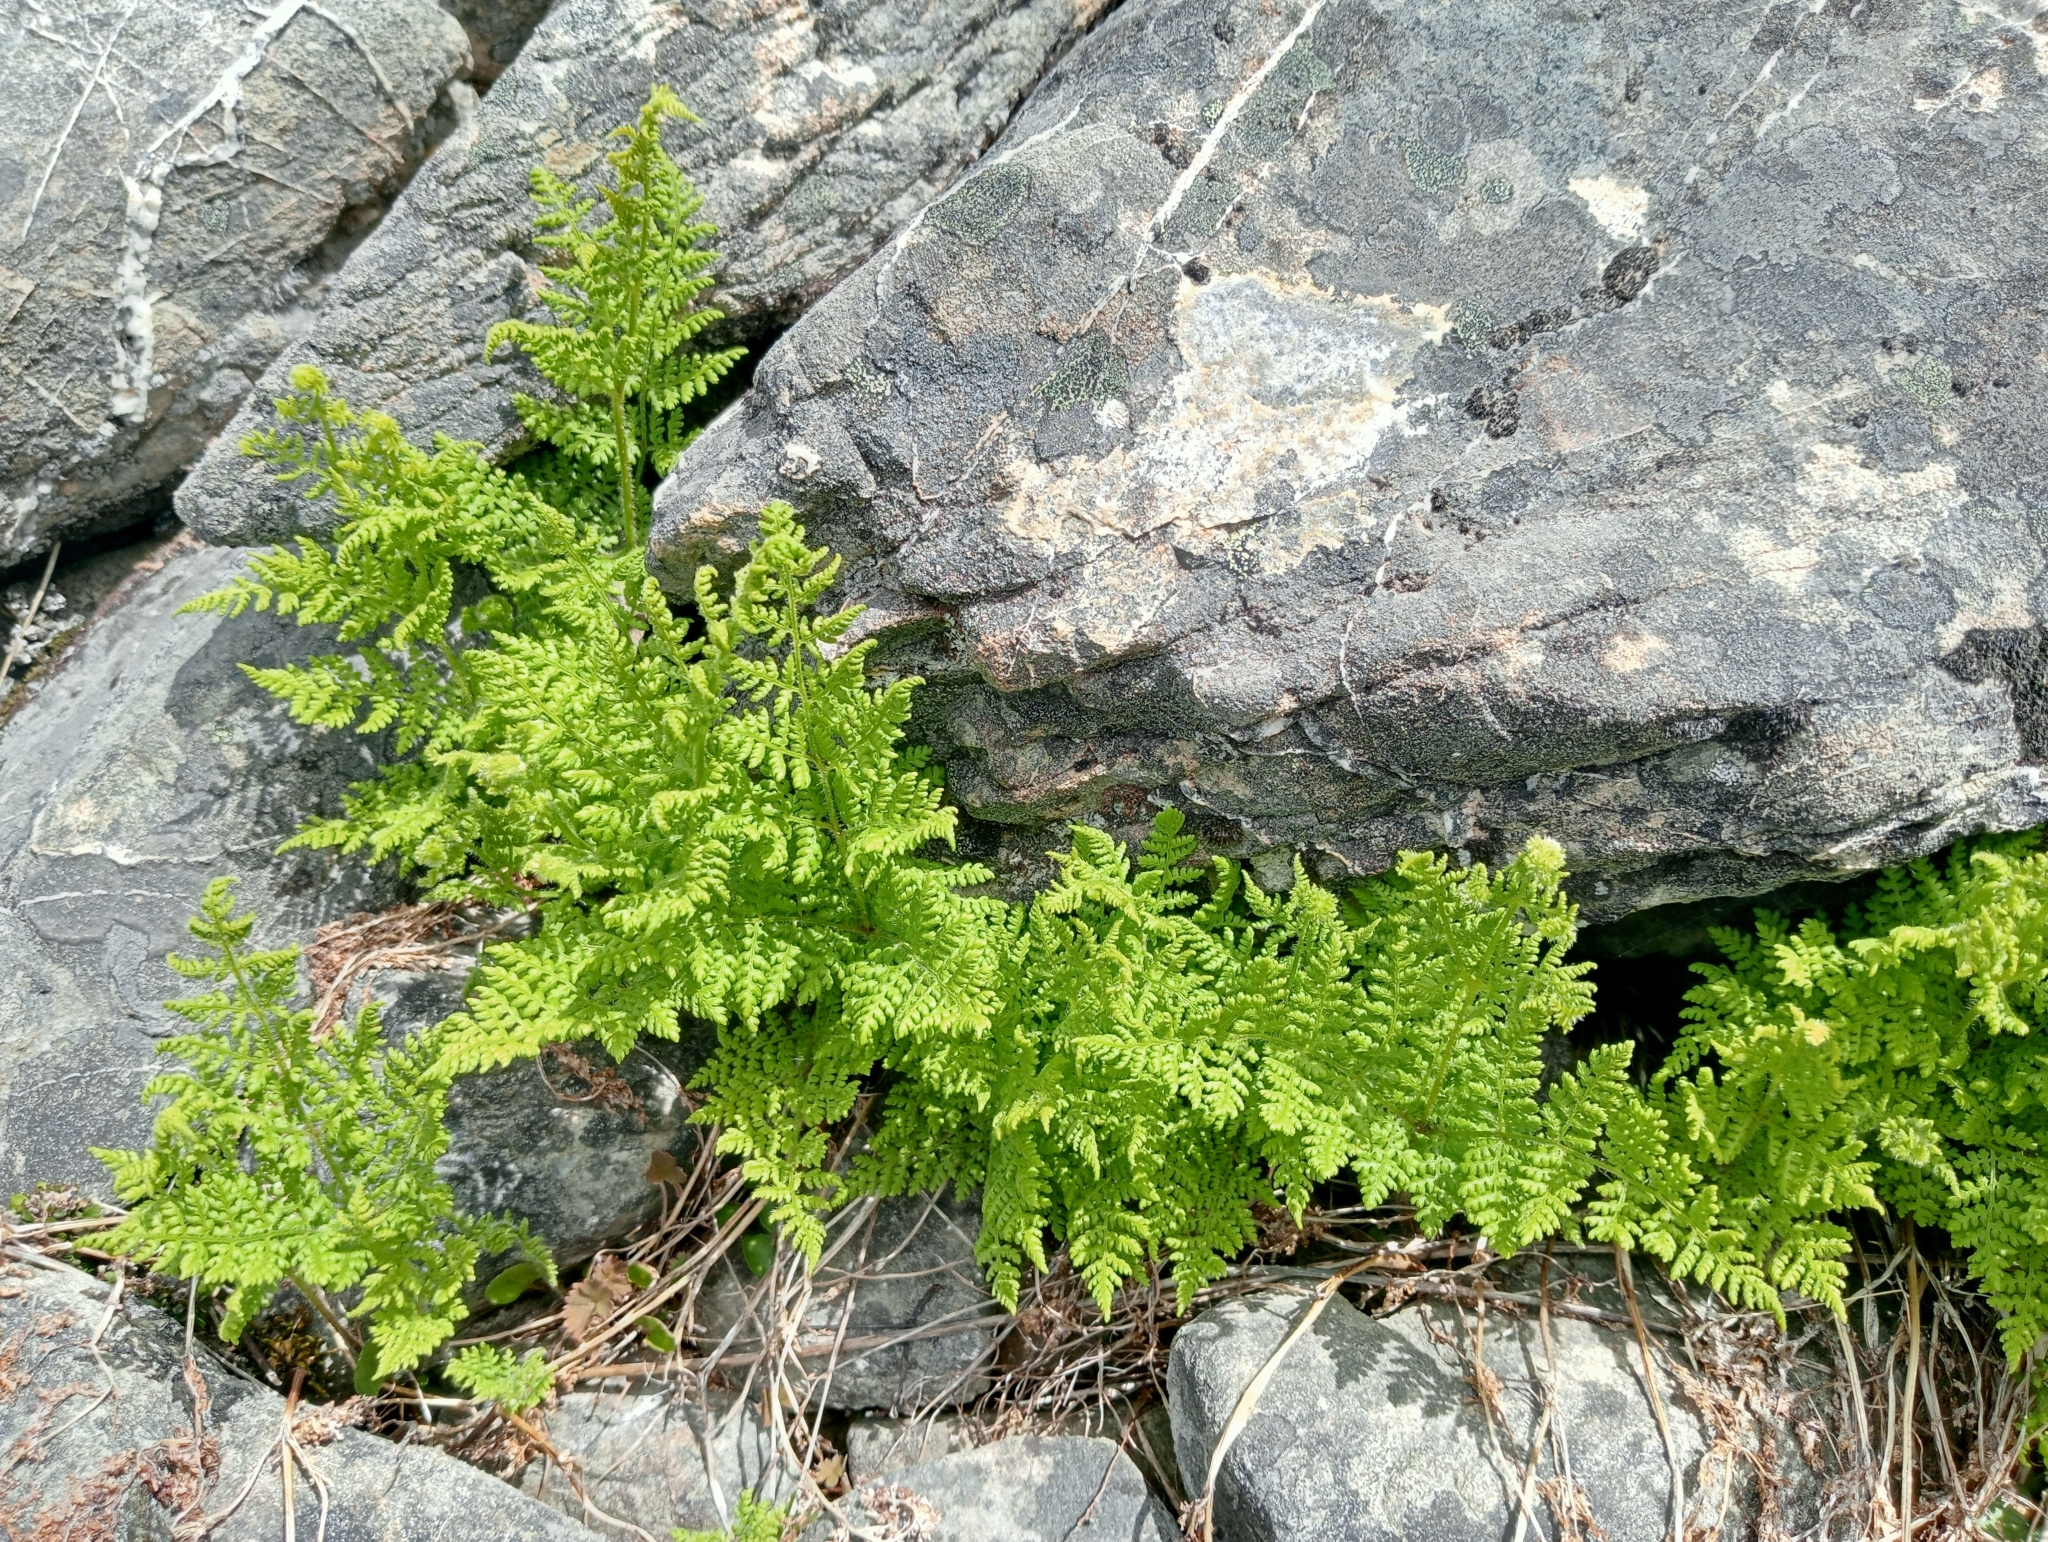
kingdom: Plantae
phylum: Tracheophyta
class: Polypodiopsida
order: Polypodiales
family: Dennstaedtiaceae
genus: Hypolepis
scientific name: Hypolepis millefolium
